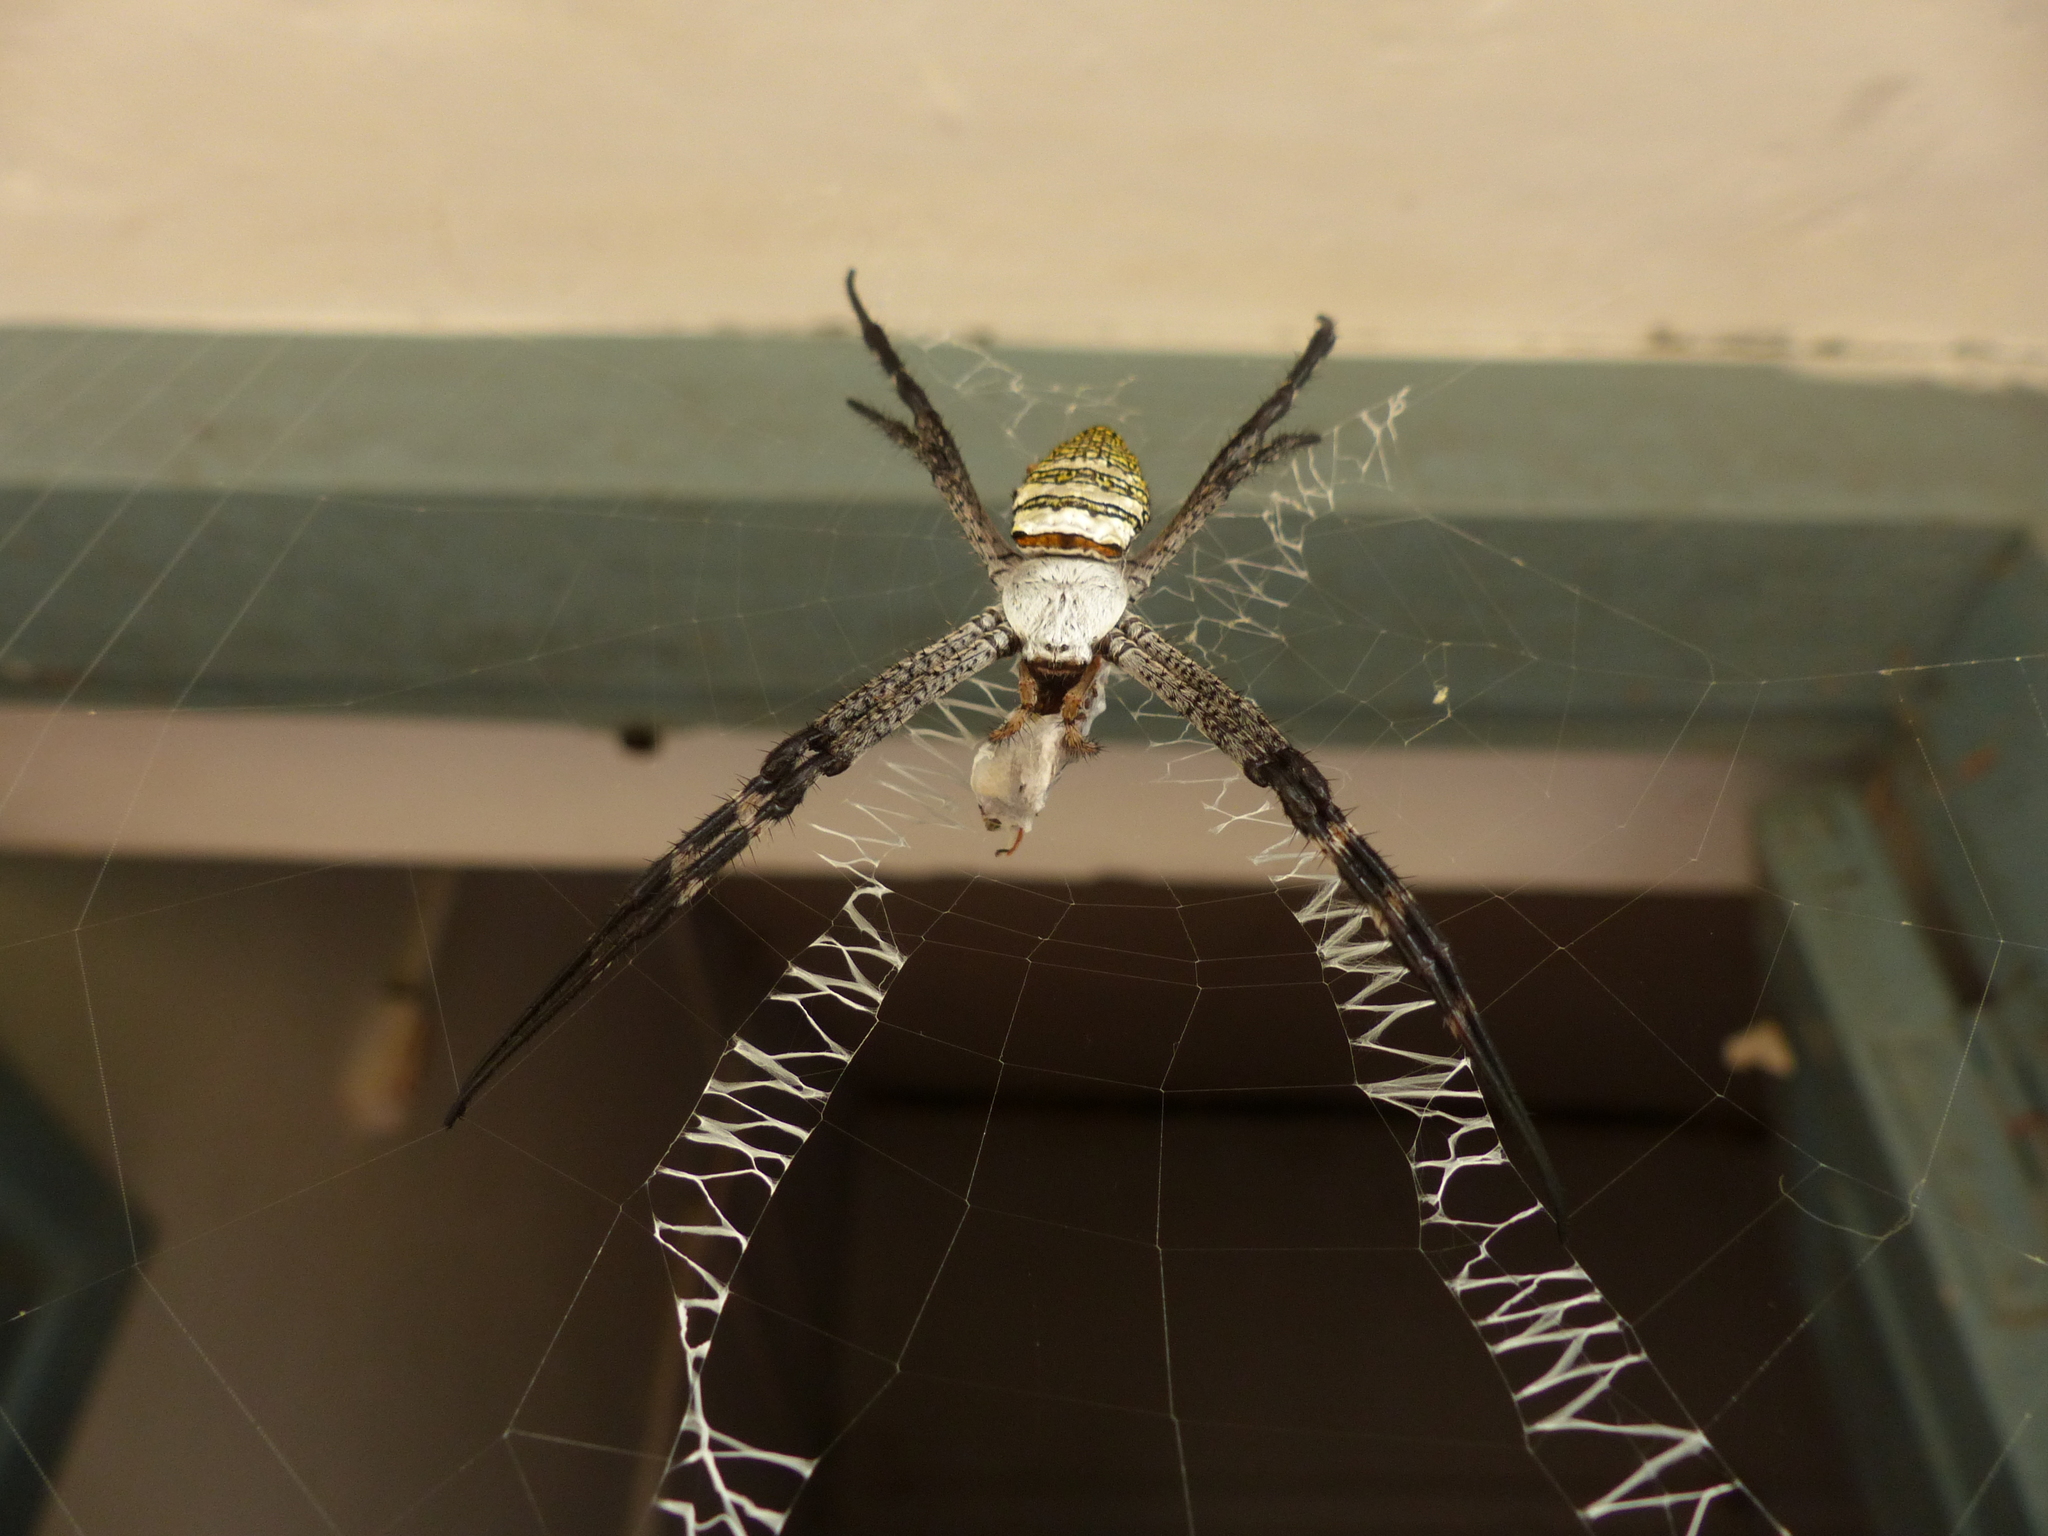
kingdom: Animalia
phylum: Arthropoda
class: Arachnida
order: Araneae
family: Araneidae
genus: Argiope
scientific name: Argiope aemula
